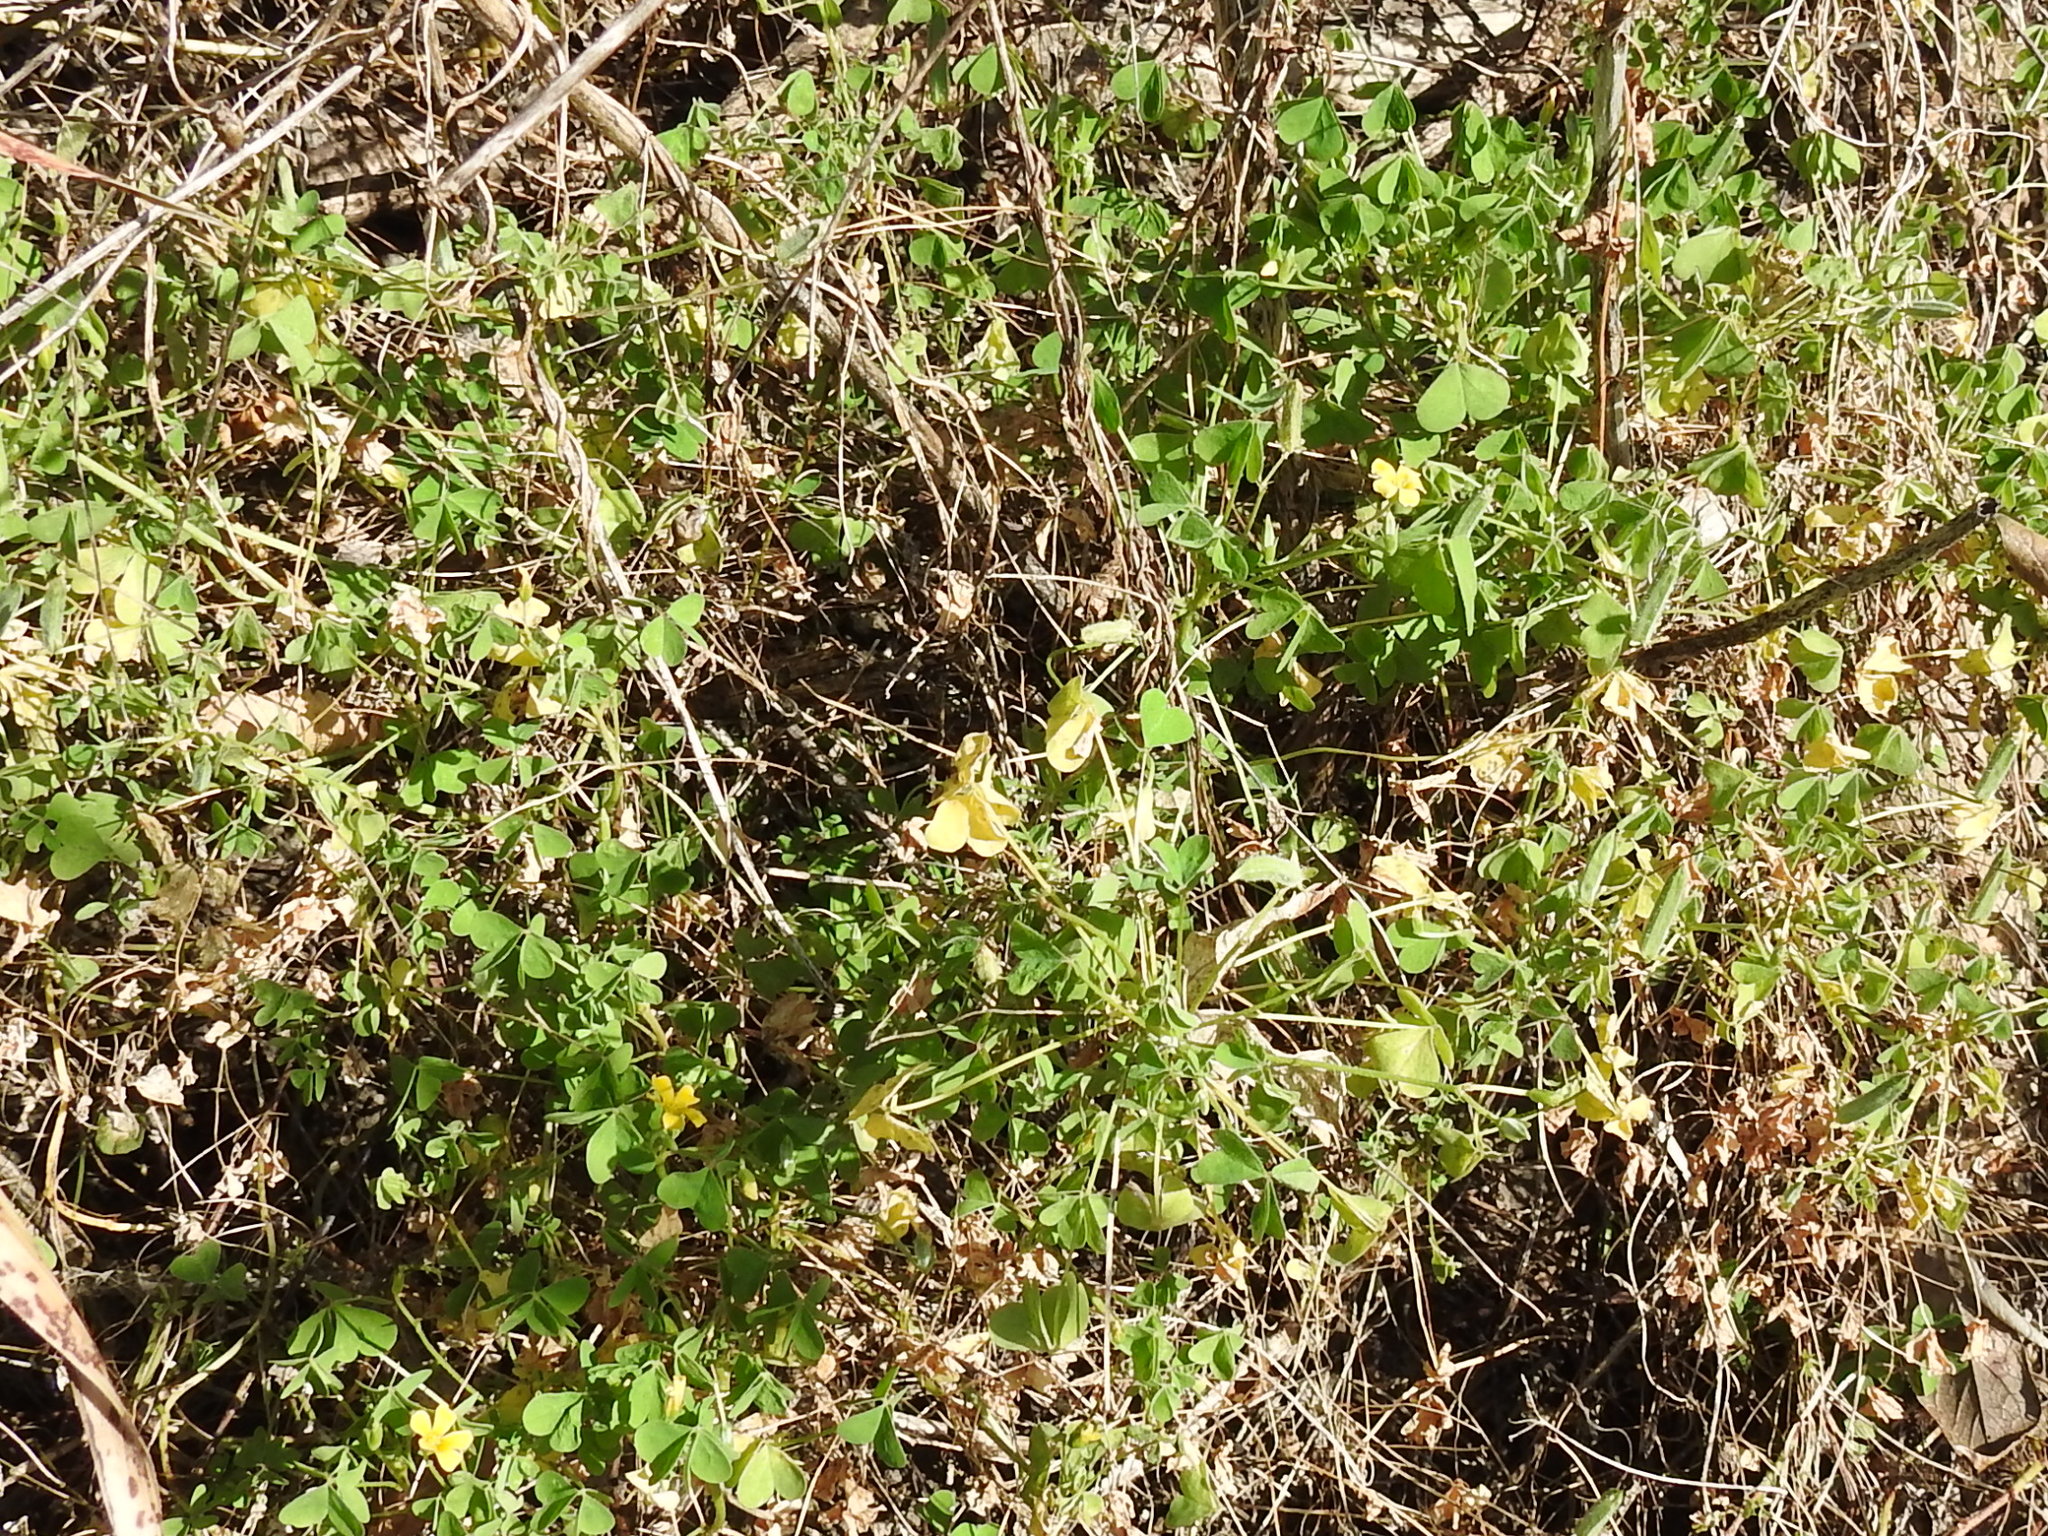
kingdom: Plantae
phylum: Tracheophyta
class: Magnoliopsida
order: Oxalidales
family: Oxalidaceae
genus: Oxalis
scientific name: Oxalis dillenii
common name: Sussex yellow-sorrel
